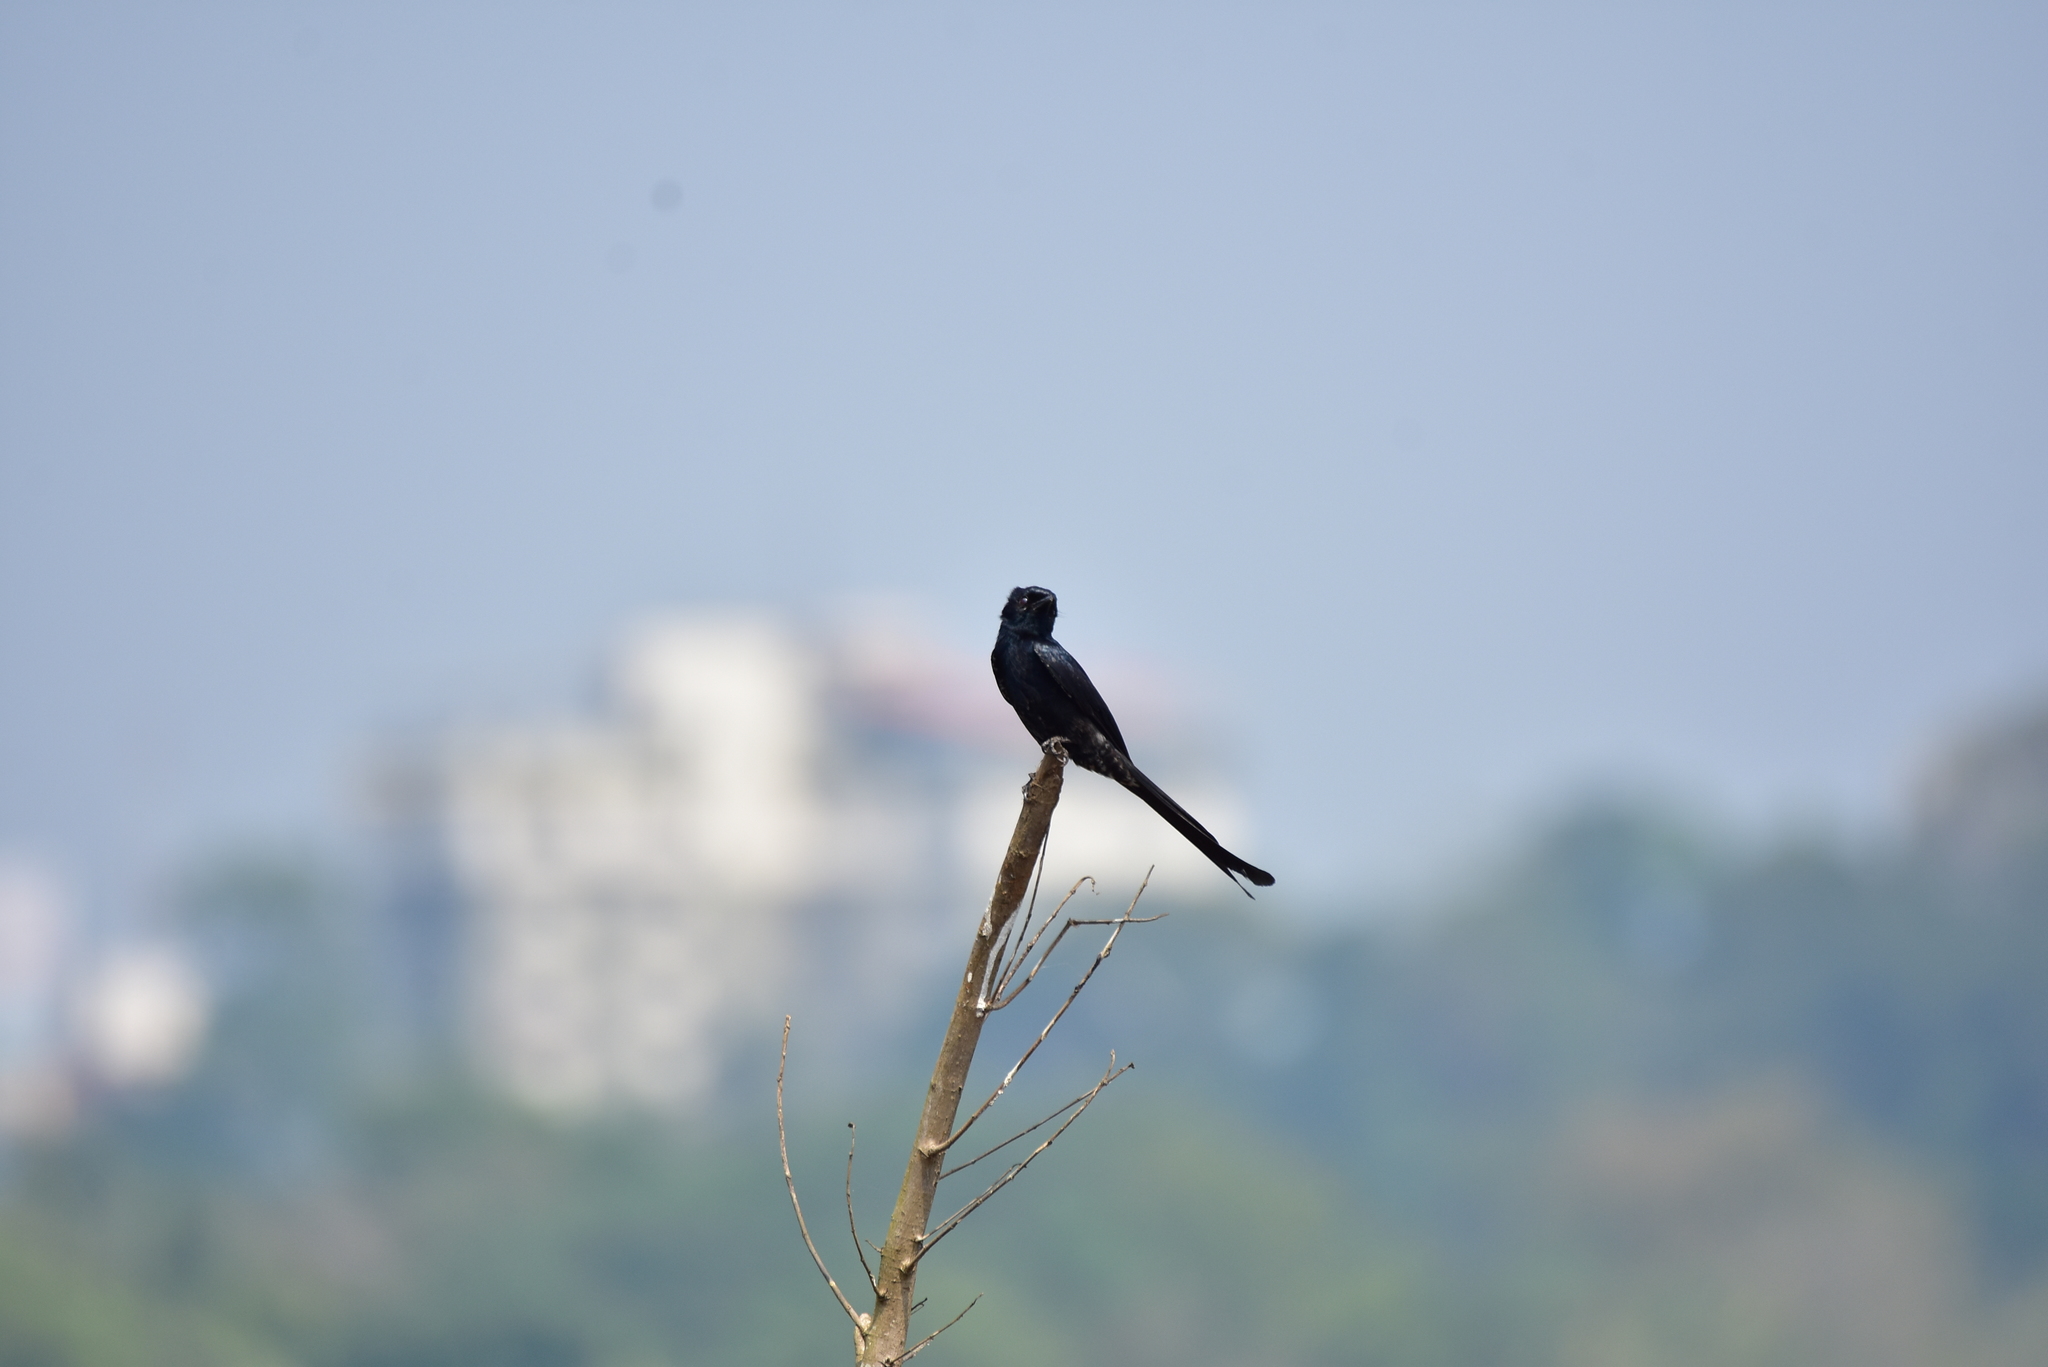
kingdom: Animalia
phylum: Chordata
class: Aves
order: Passeriformes
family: Dicruridae
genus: Dicrurus
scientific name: Dicrurus macrocercus
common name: Black drongo
